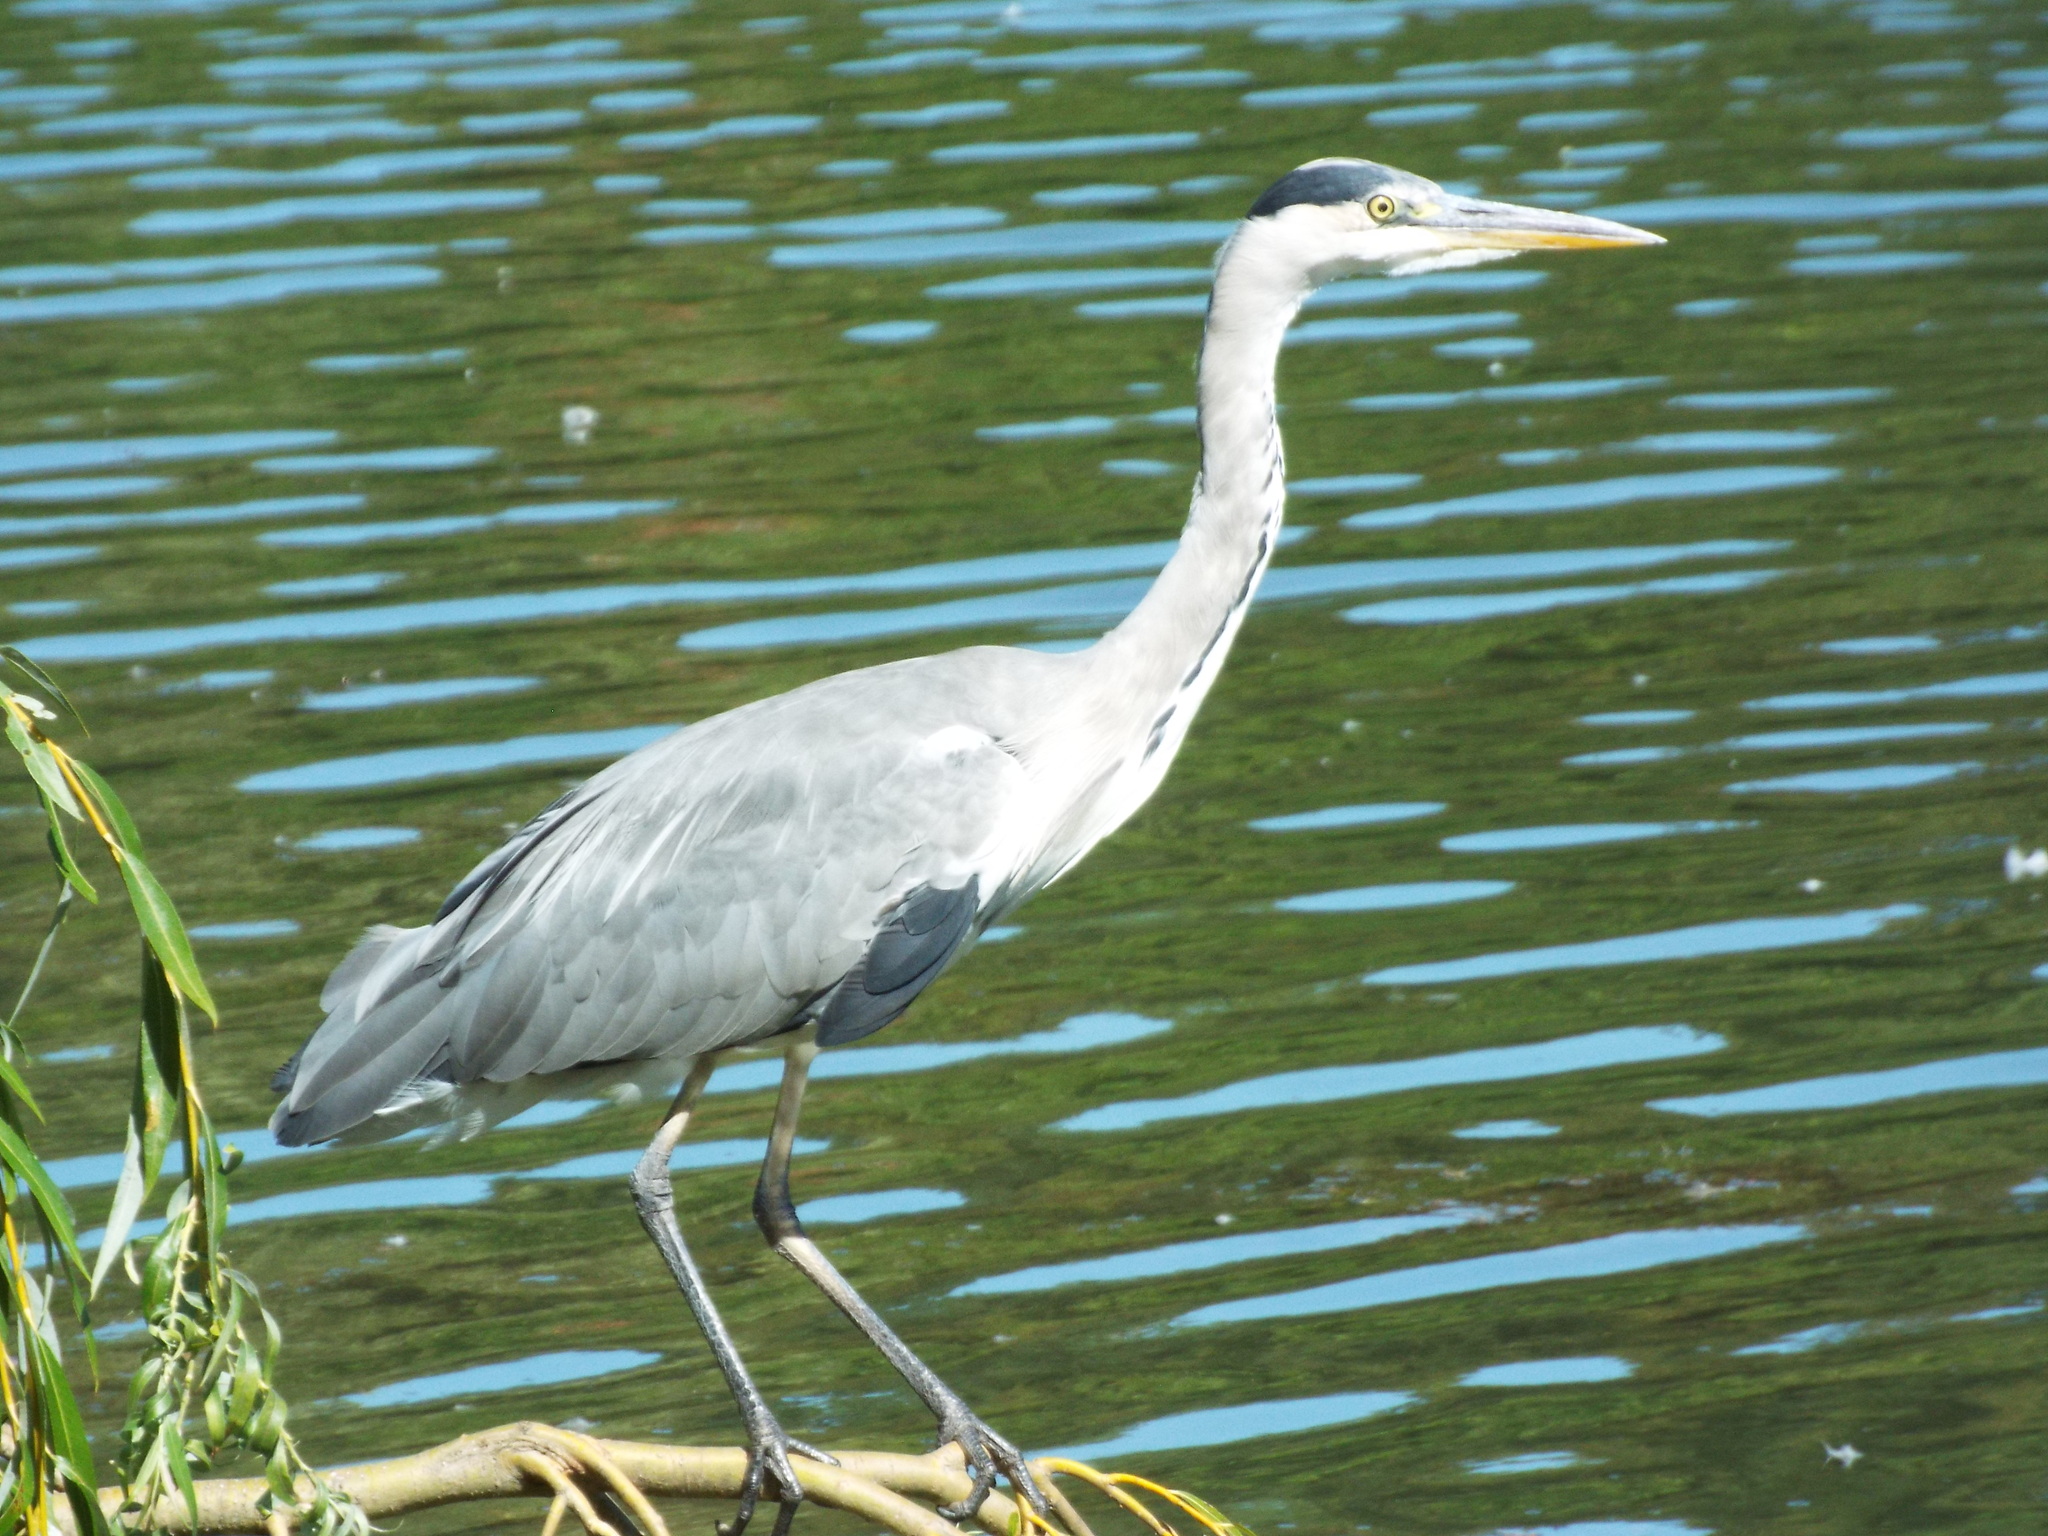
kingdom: Animalia
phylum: Chordata
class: Aves
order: Pelecaniformes
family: Ardeidae
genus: Ardea
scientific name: Ardea cinerea
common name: Grey heron
